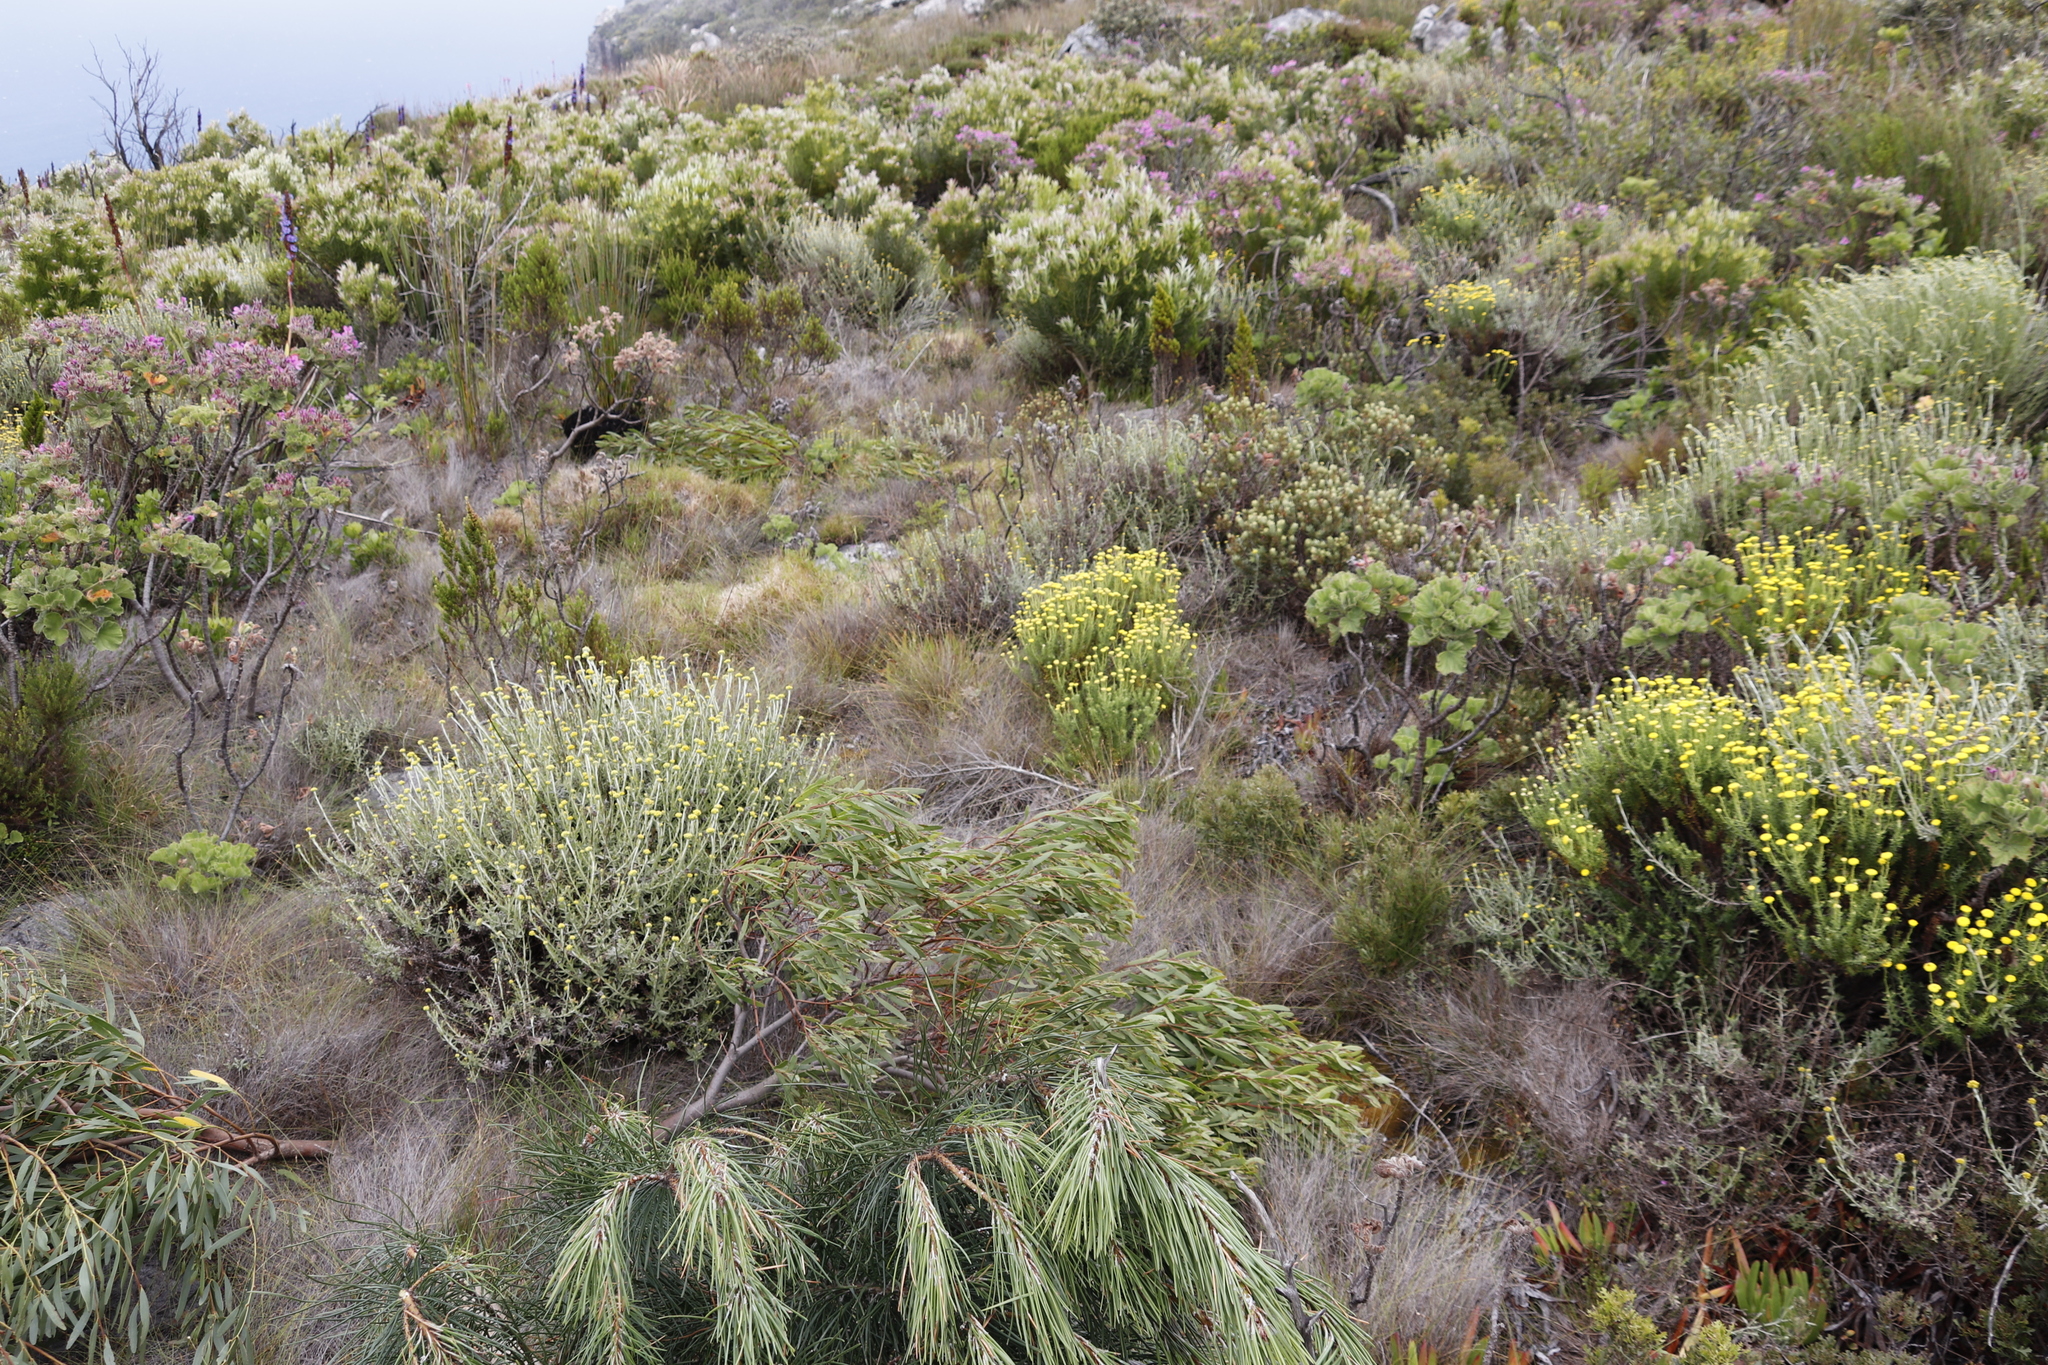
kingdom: Plantae
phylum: Tracheophyta
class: Magnoliopsida
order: Fabales
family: Fabaceae
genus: Acacia
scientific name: Acacia cyclops
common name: Coastal wattle
